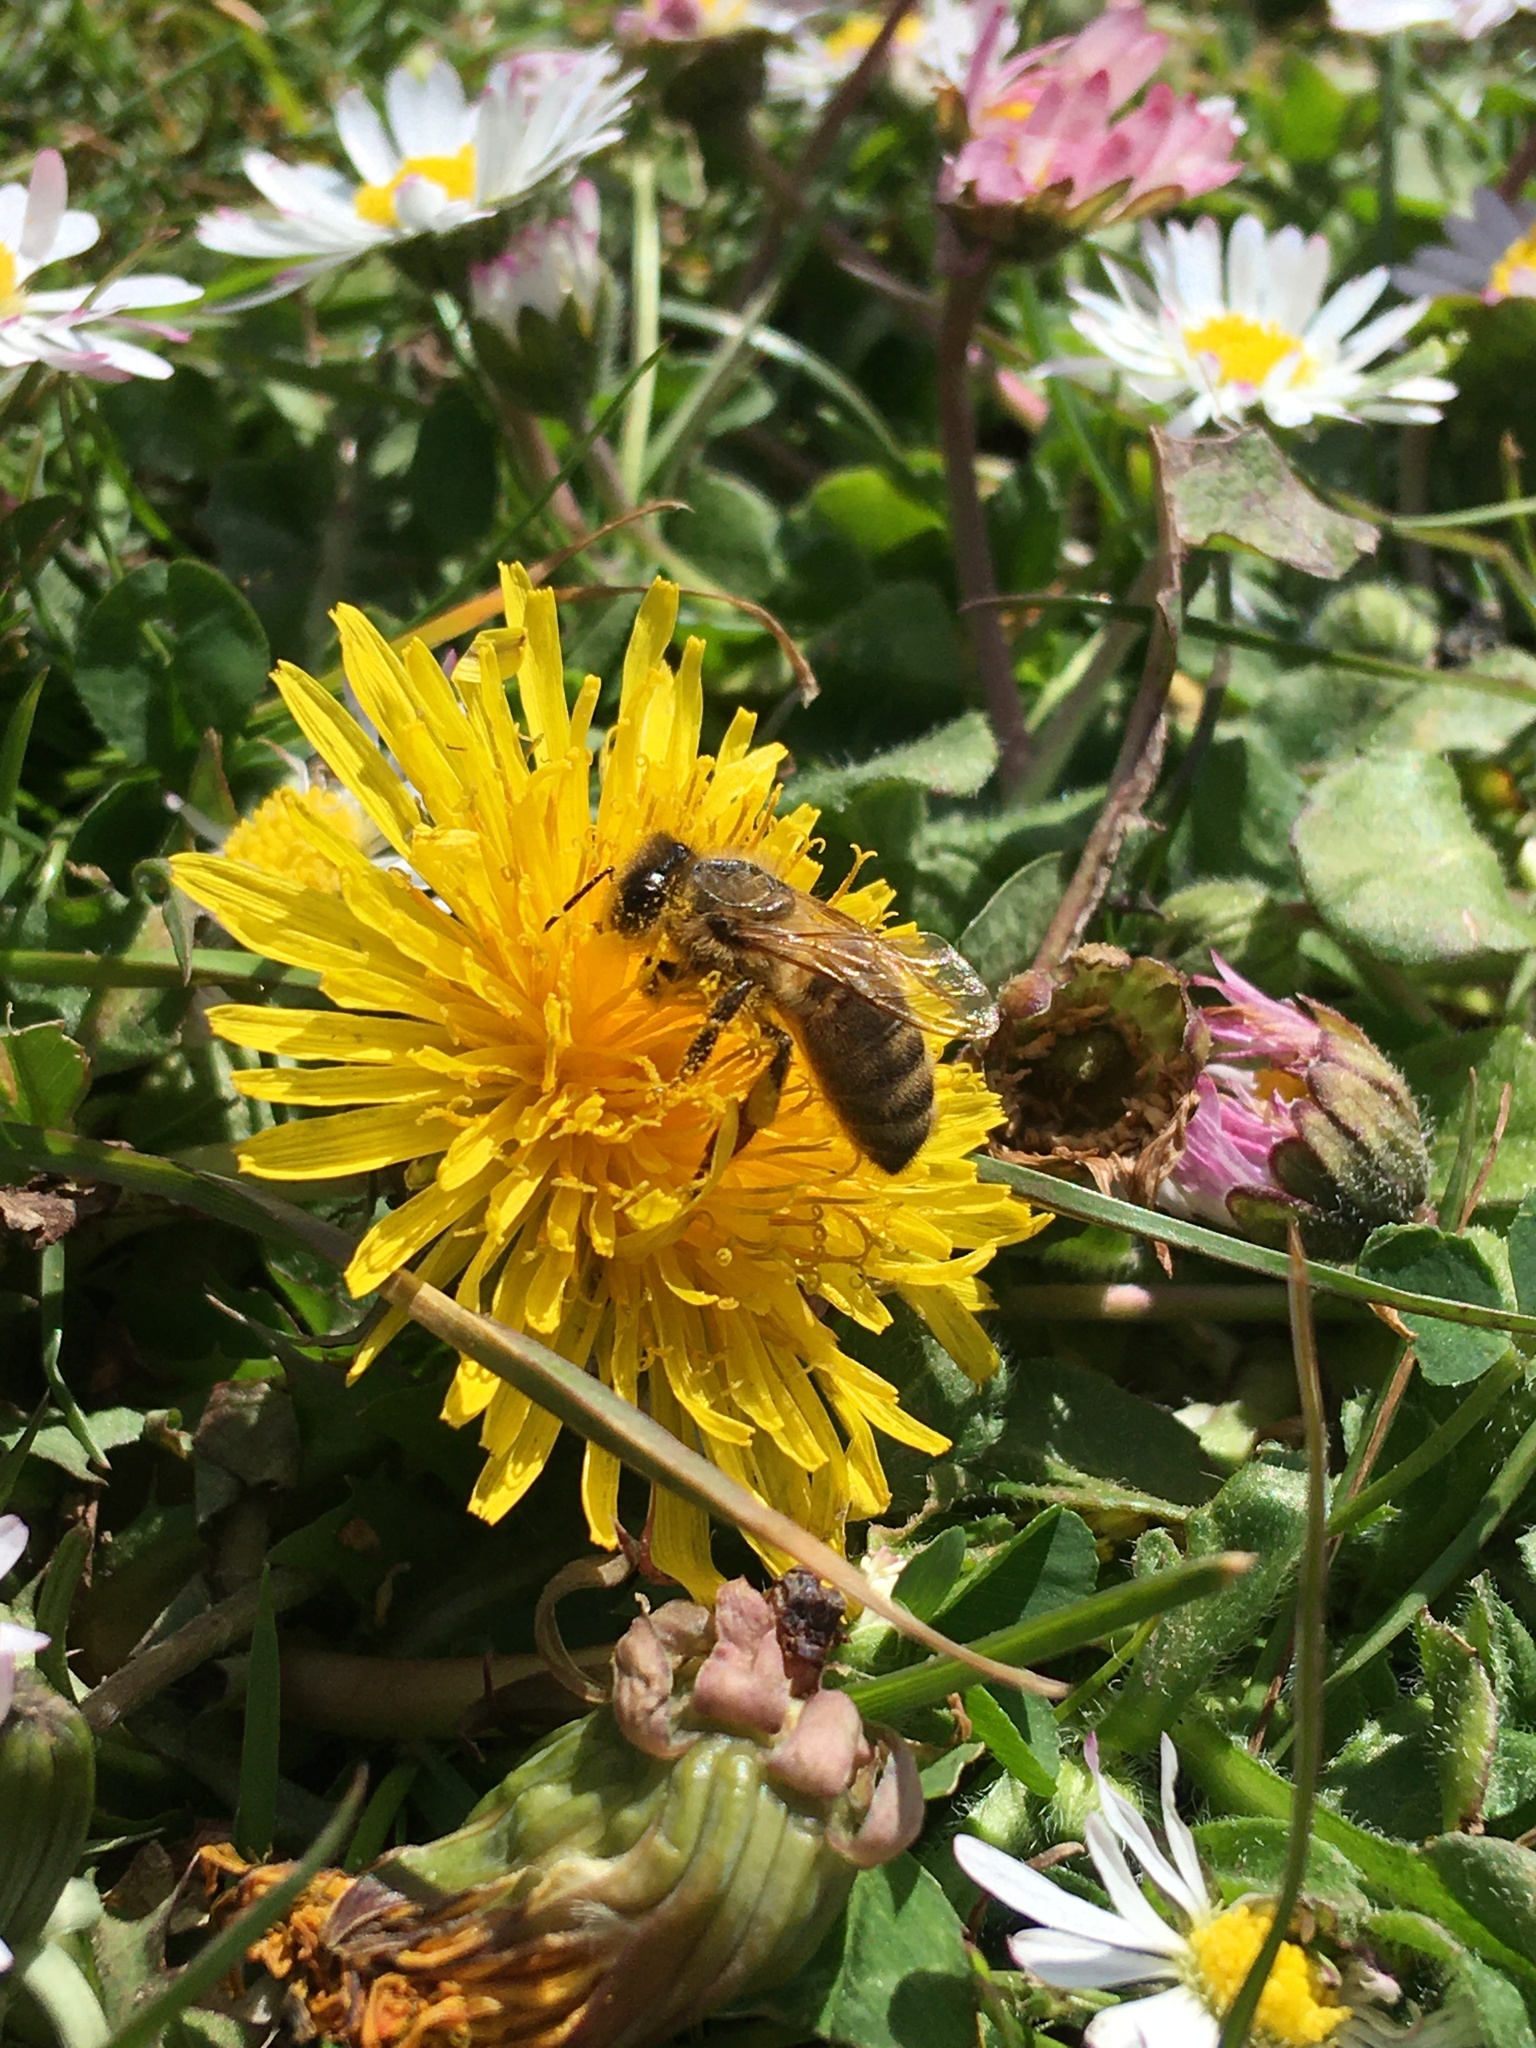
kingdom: Animalia
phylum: Arthropoda
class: Insecta
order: Hymenoptera
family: Apidae
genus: Apis
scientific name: Apis mellifera
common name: Honey bee
